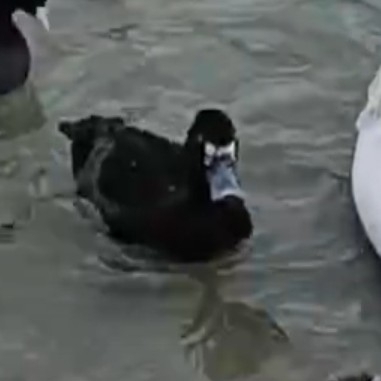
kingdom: Animalia
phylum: Chordata
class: Aves
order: Anseriformes
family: Anatidae
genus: Aythya
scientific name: Aythya marila
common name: Greater scaup
